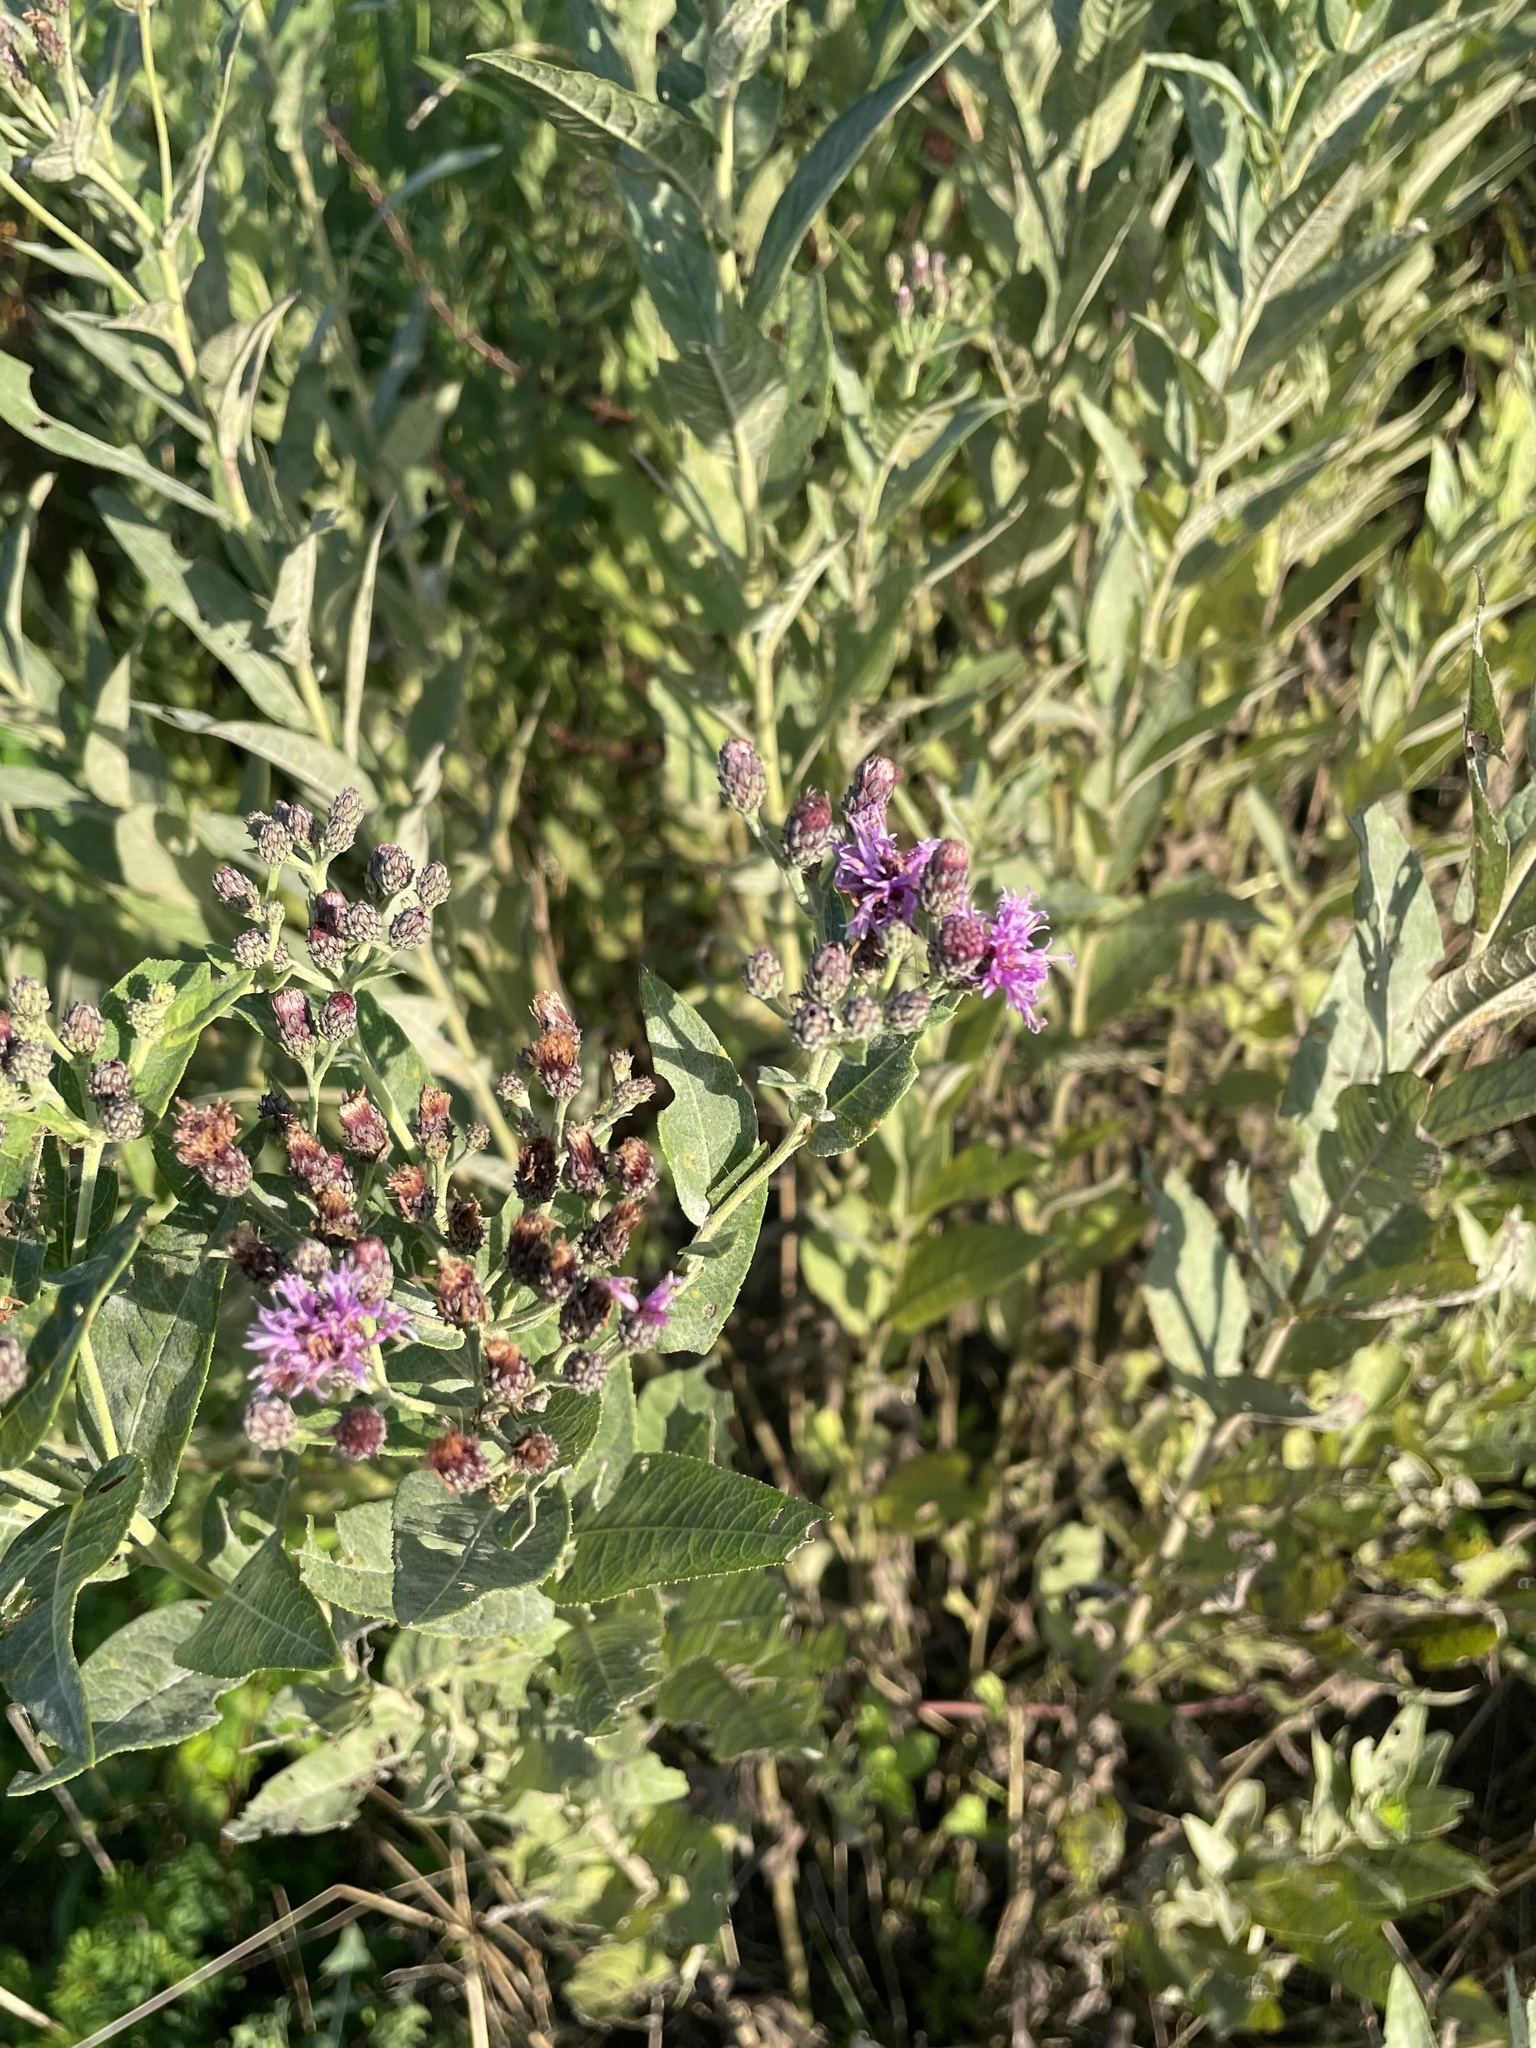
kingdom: Plantae
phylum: Tracheophyta
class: Magnoliopsida
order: Asterales
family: Asteraceae
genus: Vernonia
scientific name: Vernonia baldwinii
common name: Western ironweed
